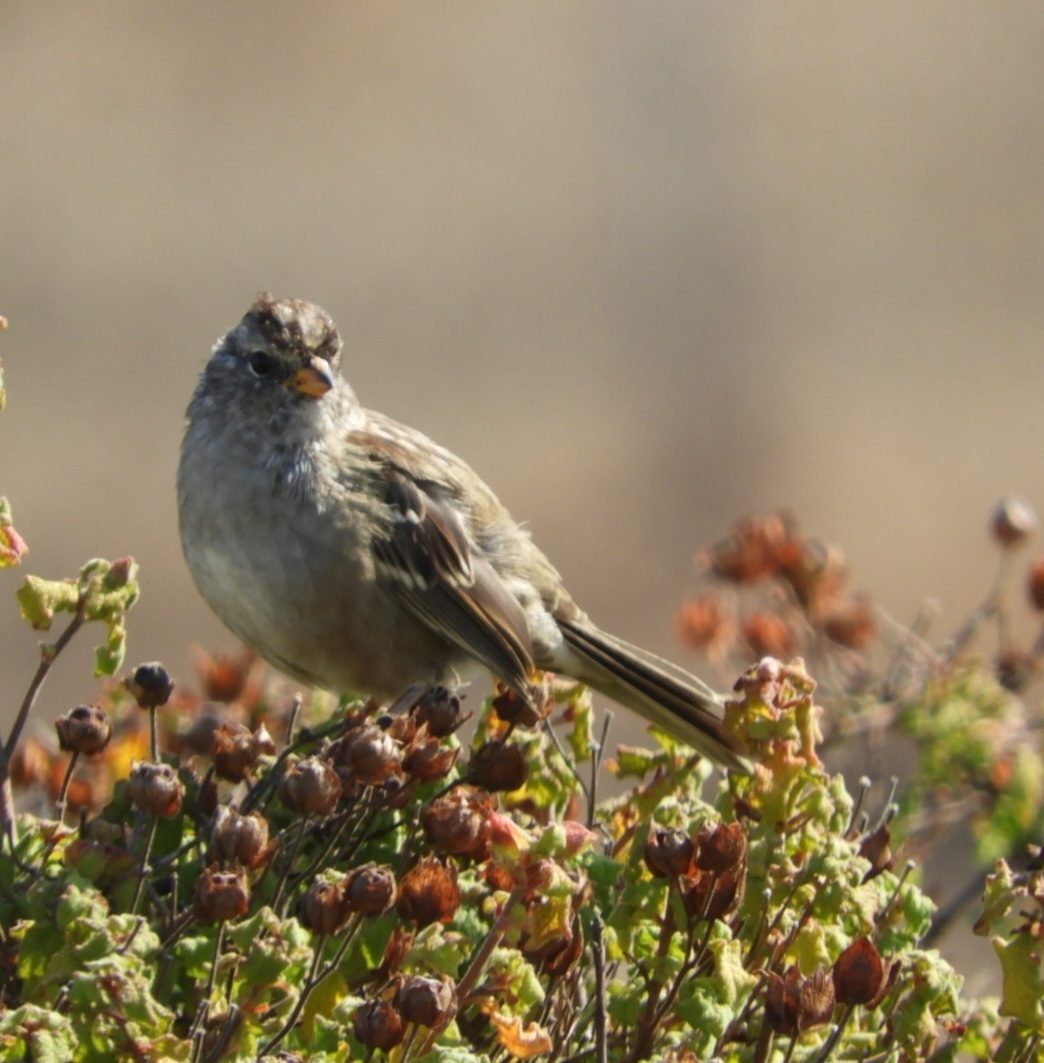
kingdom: Animalia
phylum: Chordata
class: Aves
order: Passeriformes
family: Passerellidae
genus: Zonotrichia
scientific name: Zonotrichia leucophrys
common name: White-crowned sparrow
